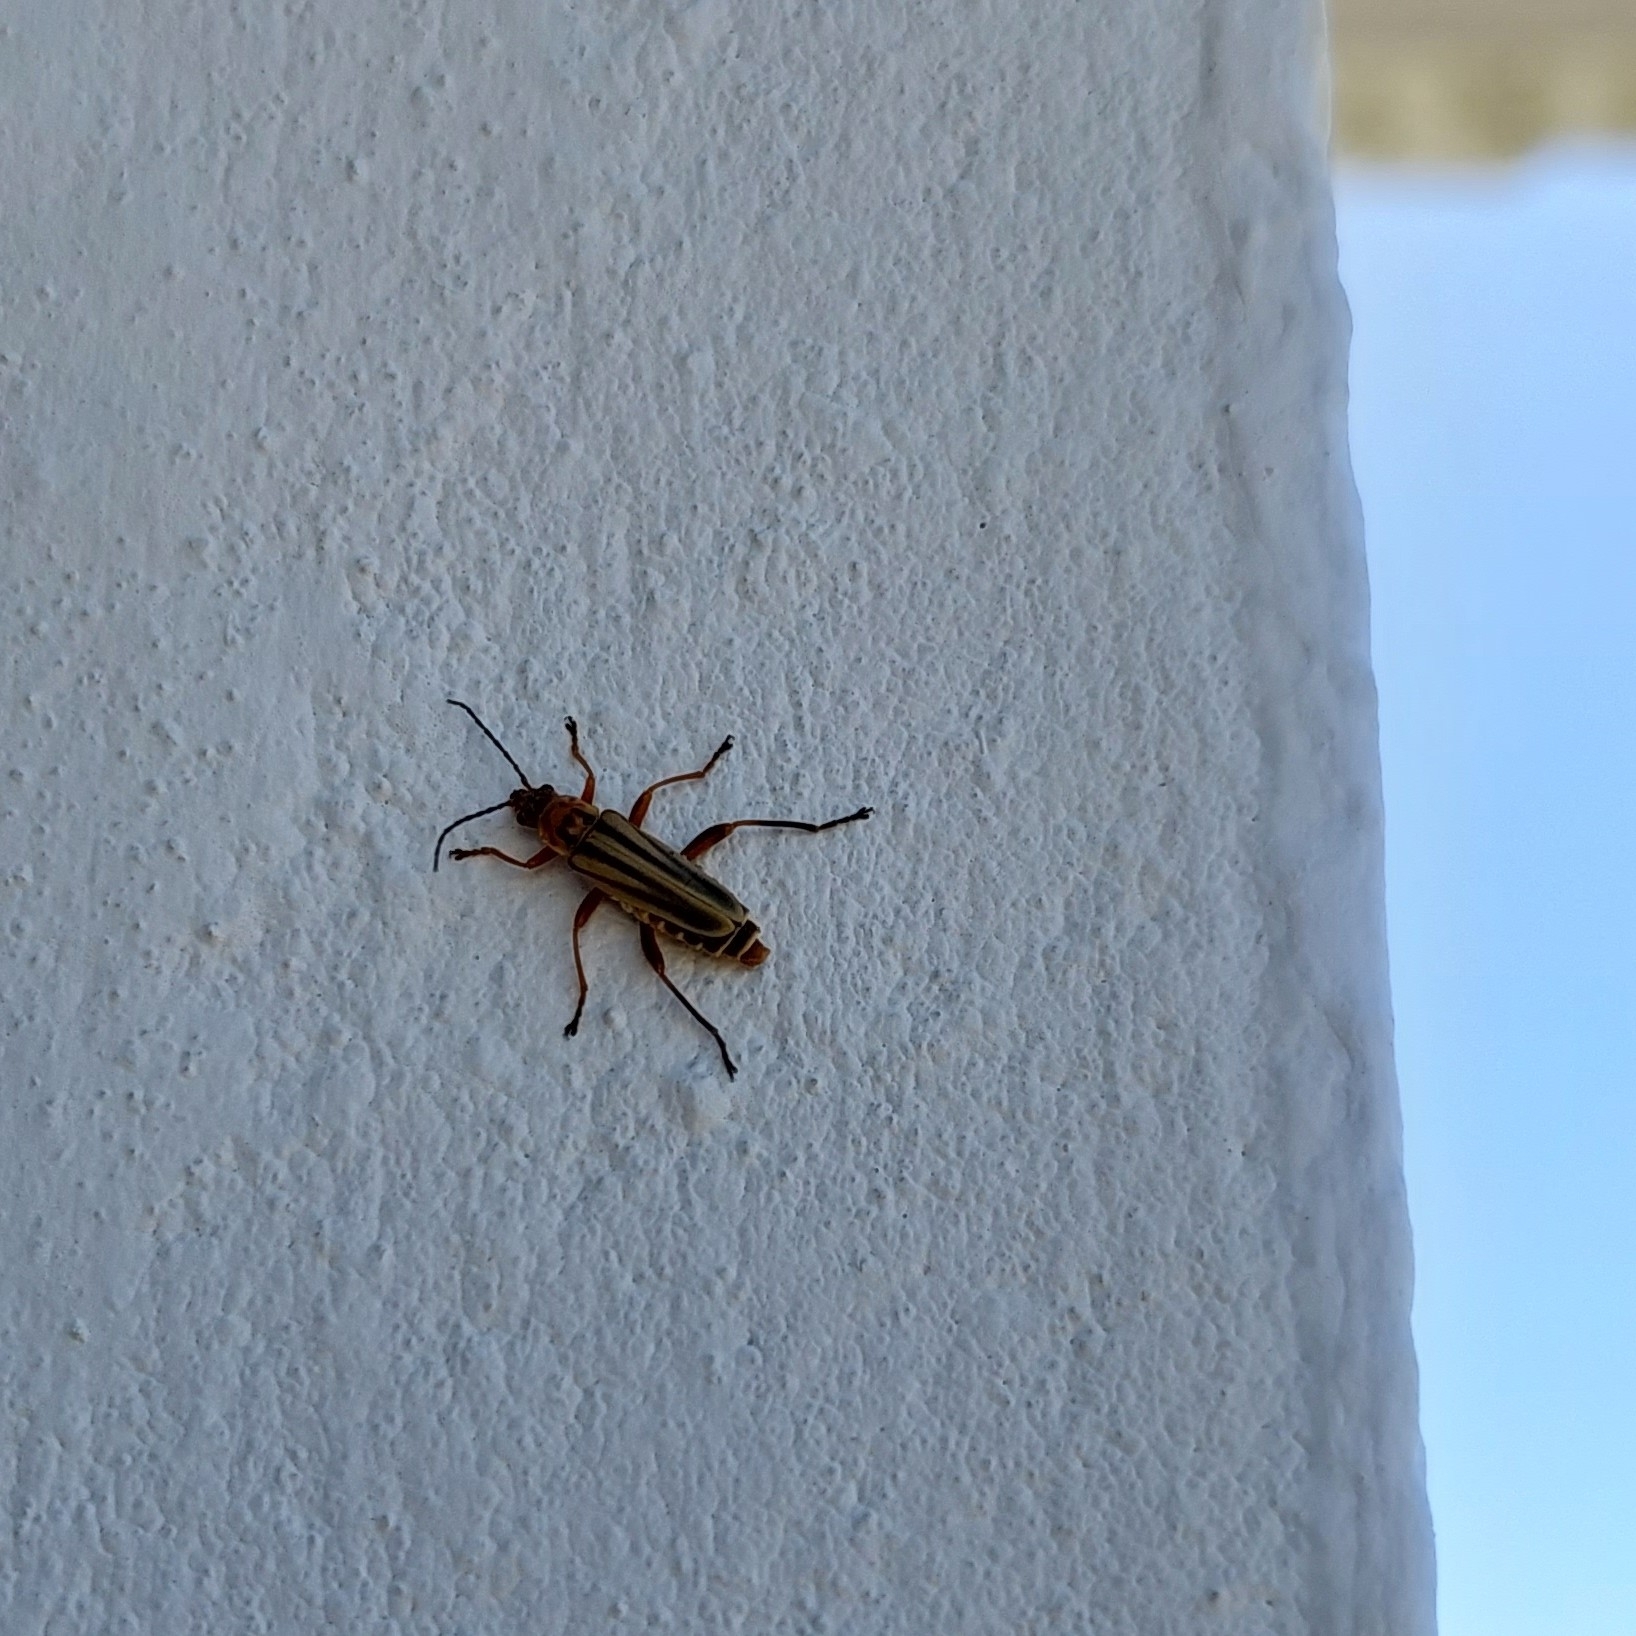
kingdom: Animalia
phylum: Arthropoda
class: Insecta
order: Coleoptera
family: Cantharidae
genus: Chauliognathus
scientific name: Chauliognathus
